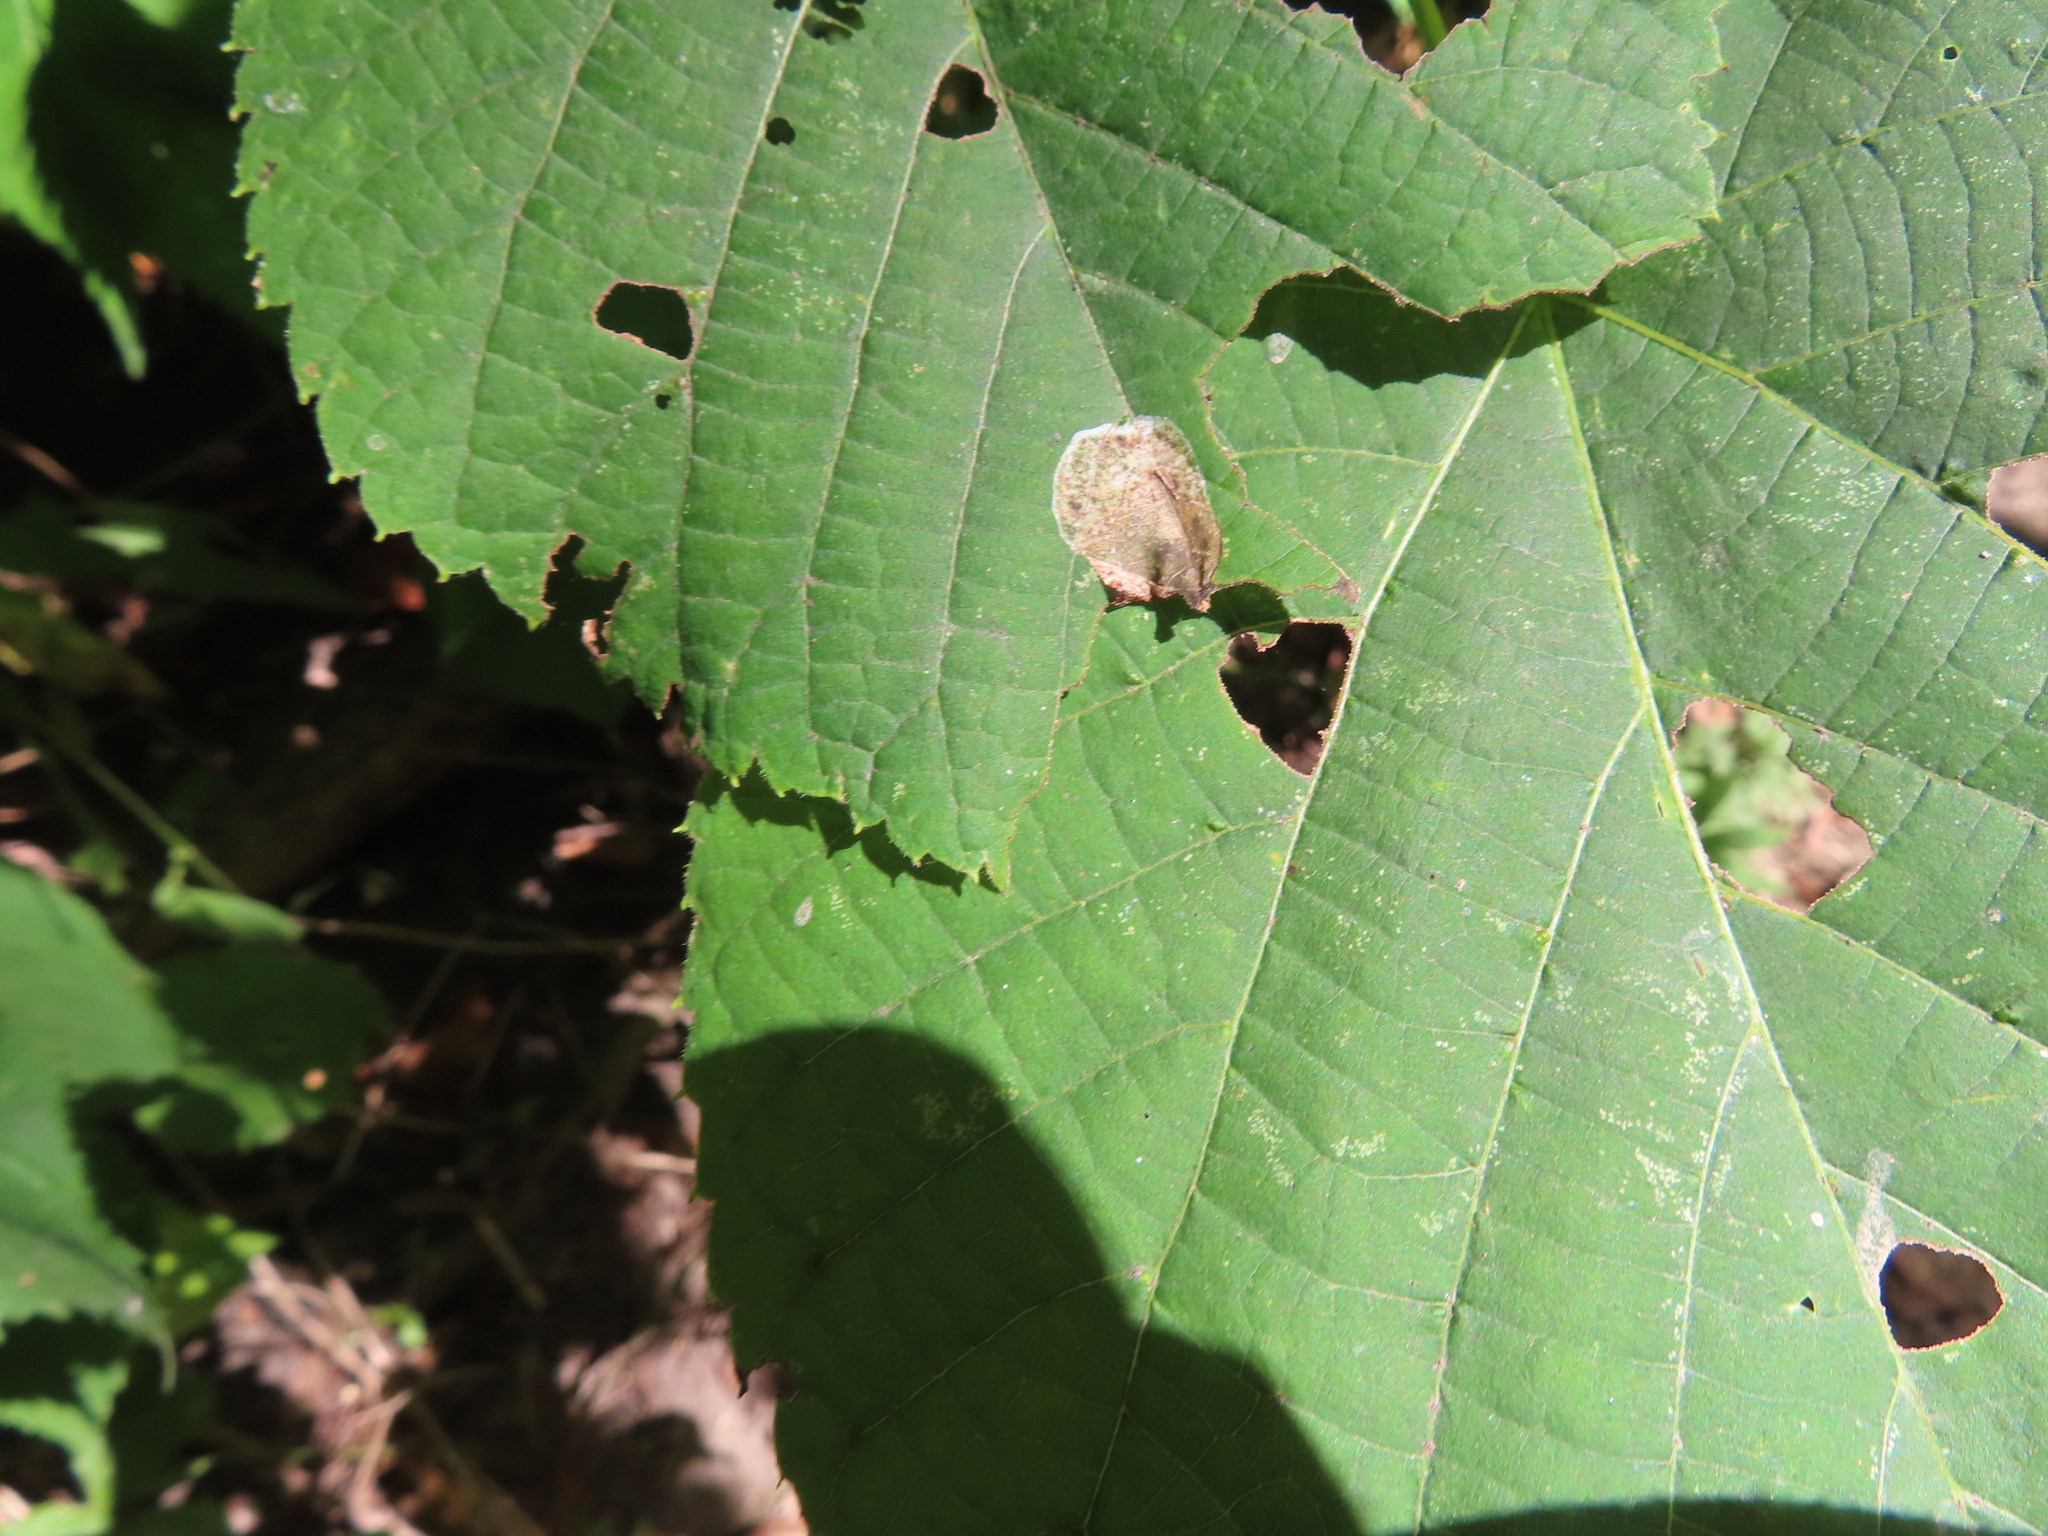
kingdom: Animalia
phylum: Arthropoda
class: Insecta
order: Lepidoptera
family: Gracillariidae
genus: Phyllonorycter
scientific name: Phyllonorycter tiliacella
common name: Basswood round-blotch miner moth
